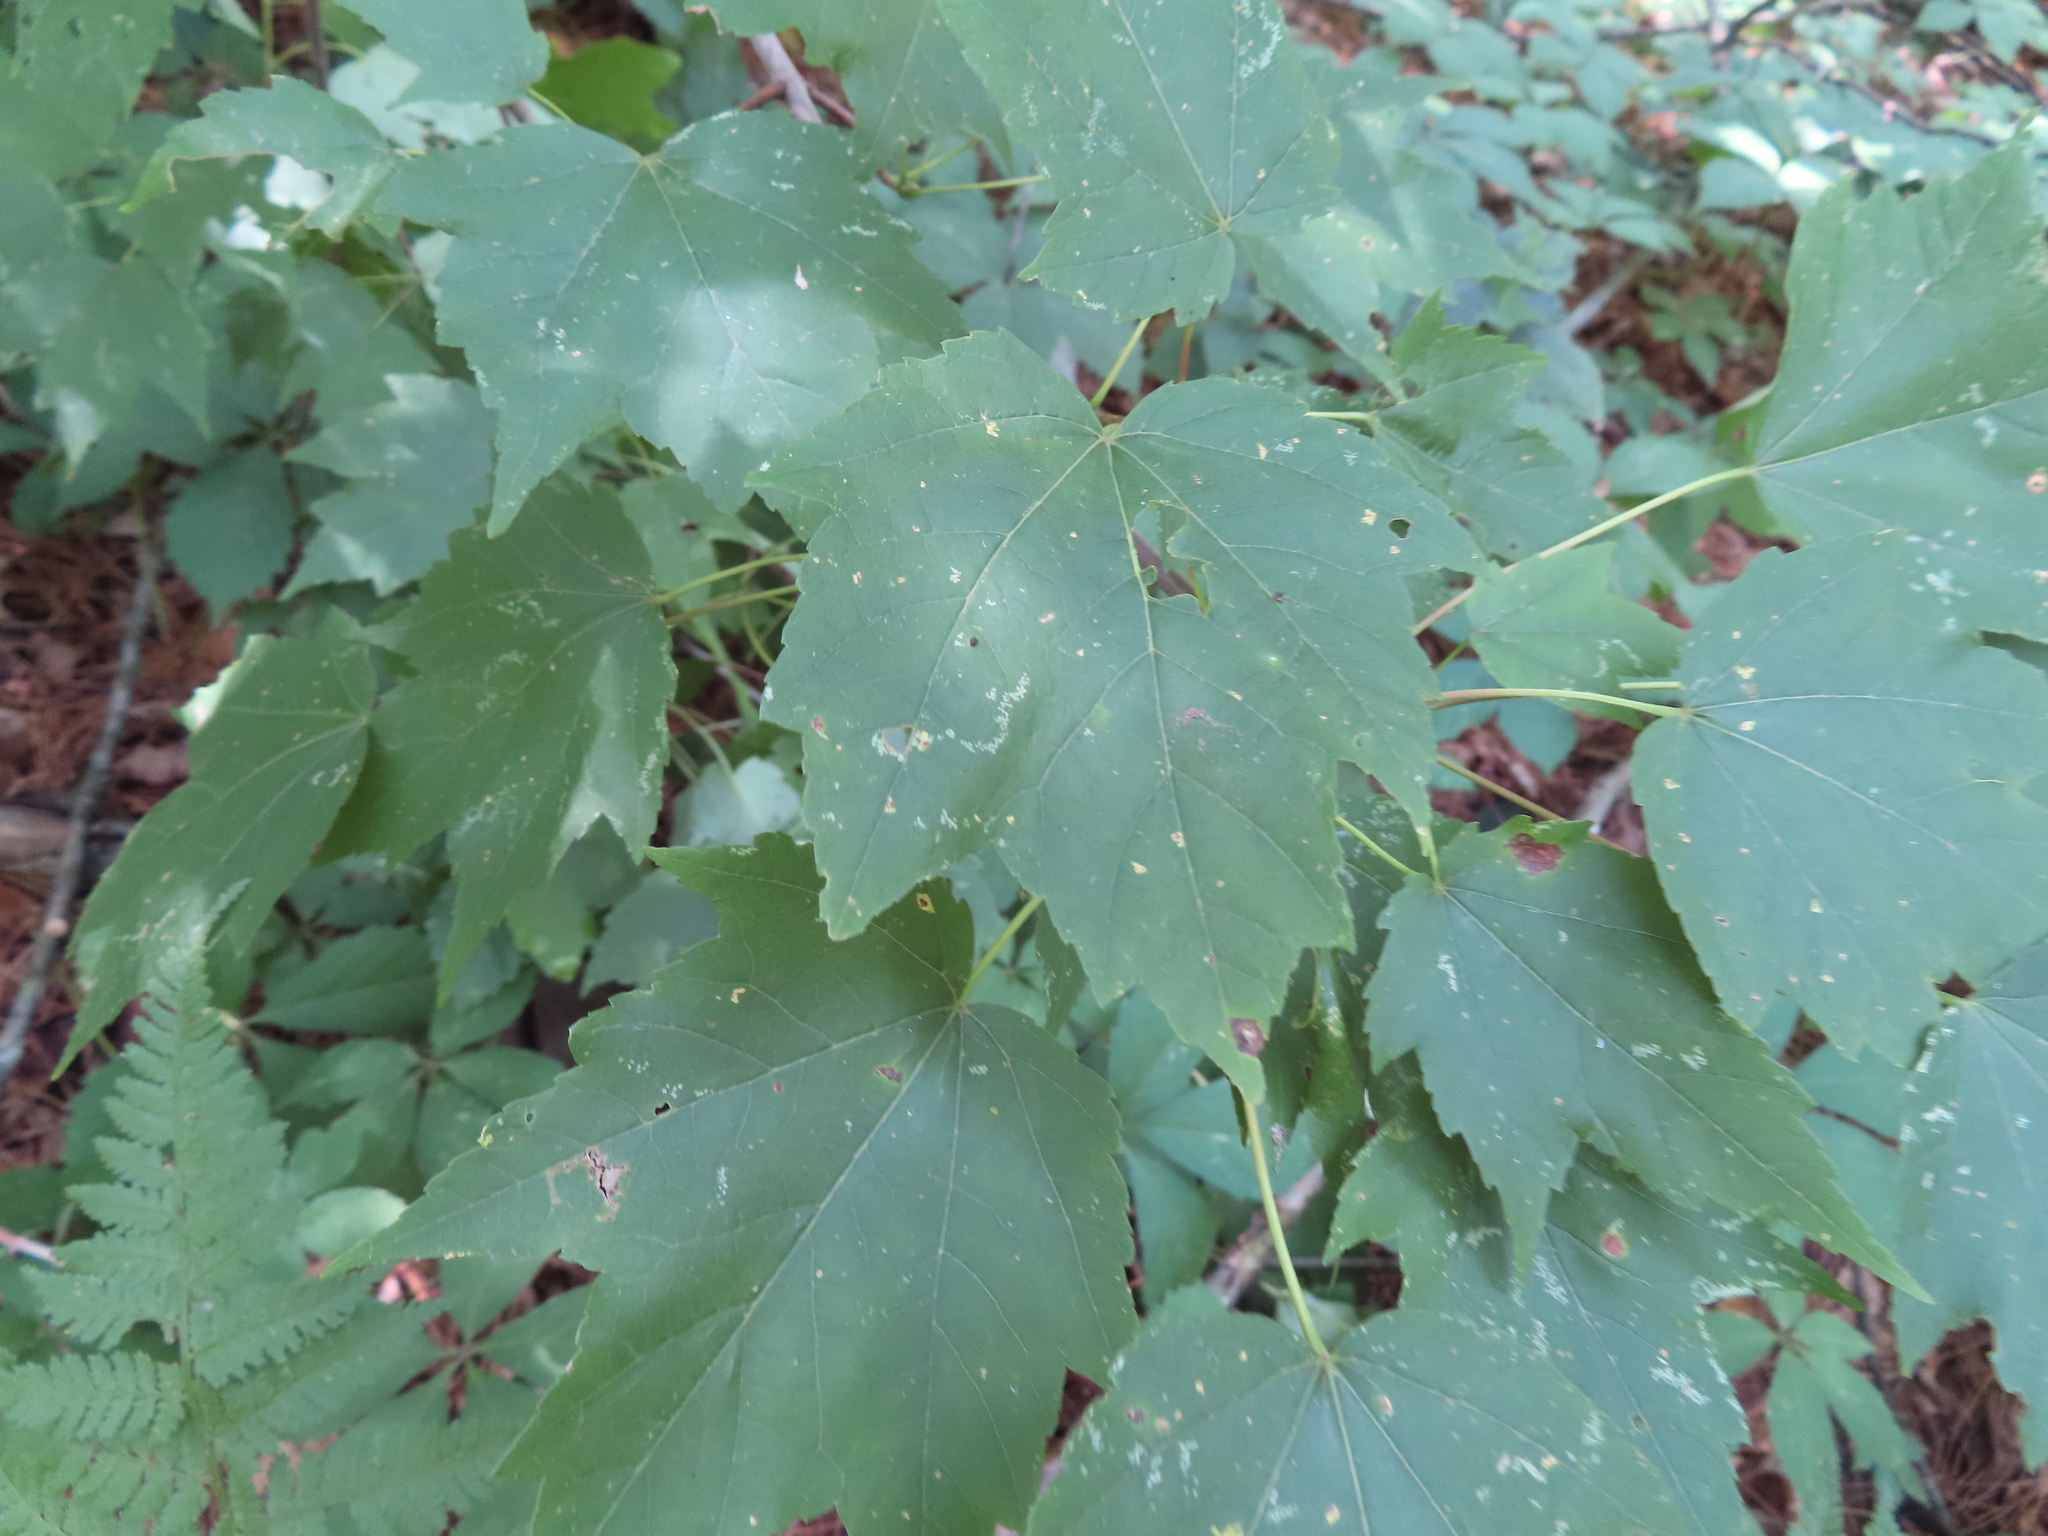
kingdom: Plantae
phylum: Tracheophyta
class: Magnoliopsida
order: Sapindales
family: Sapindaceae
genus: Acer
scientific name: Acer rubrum
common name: Red maple
